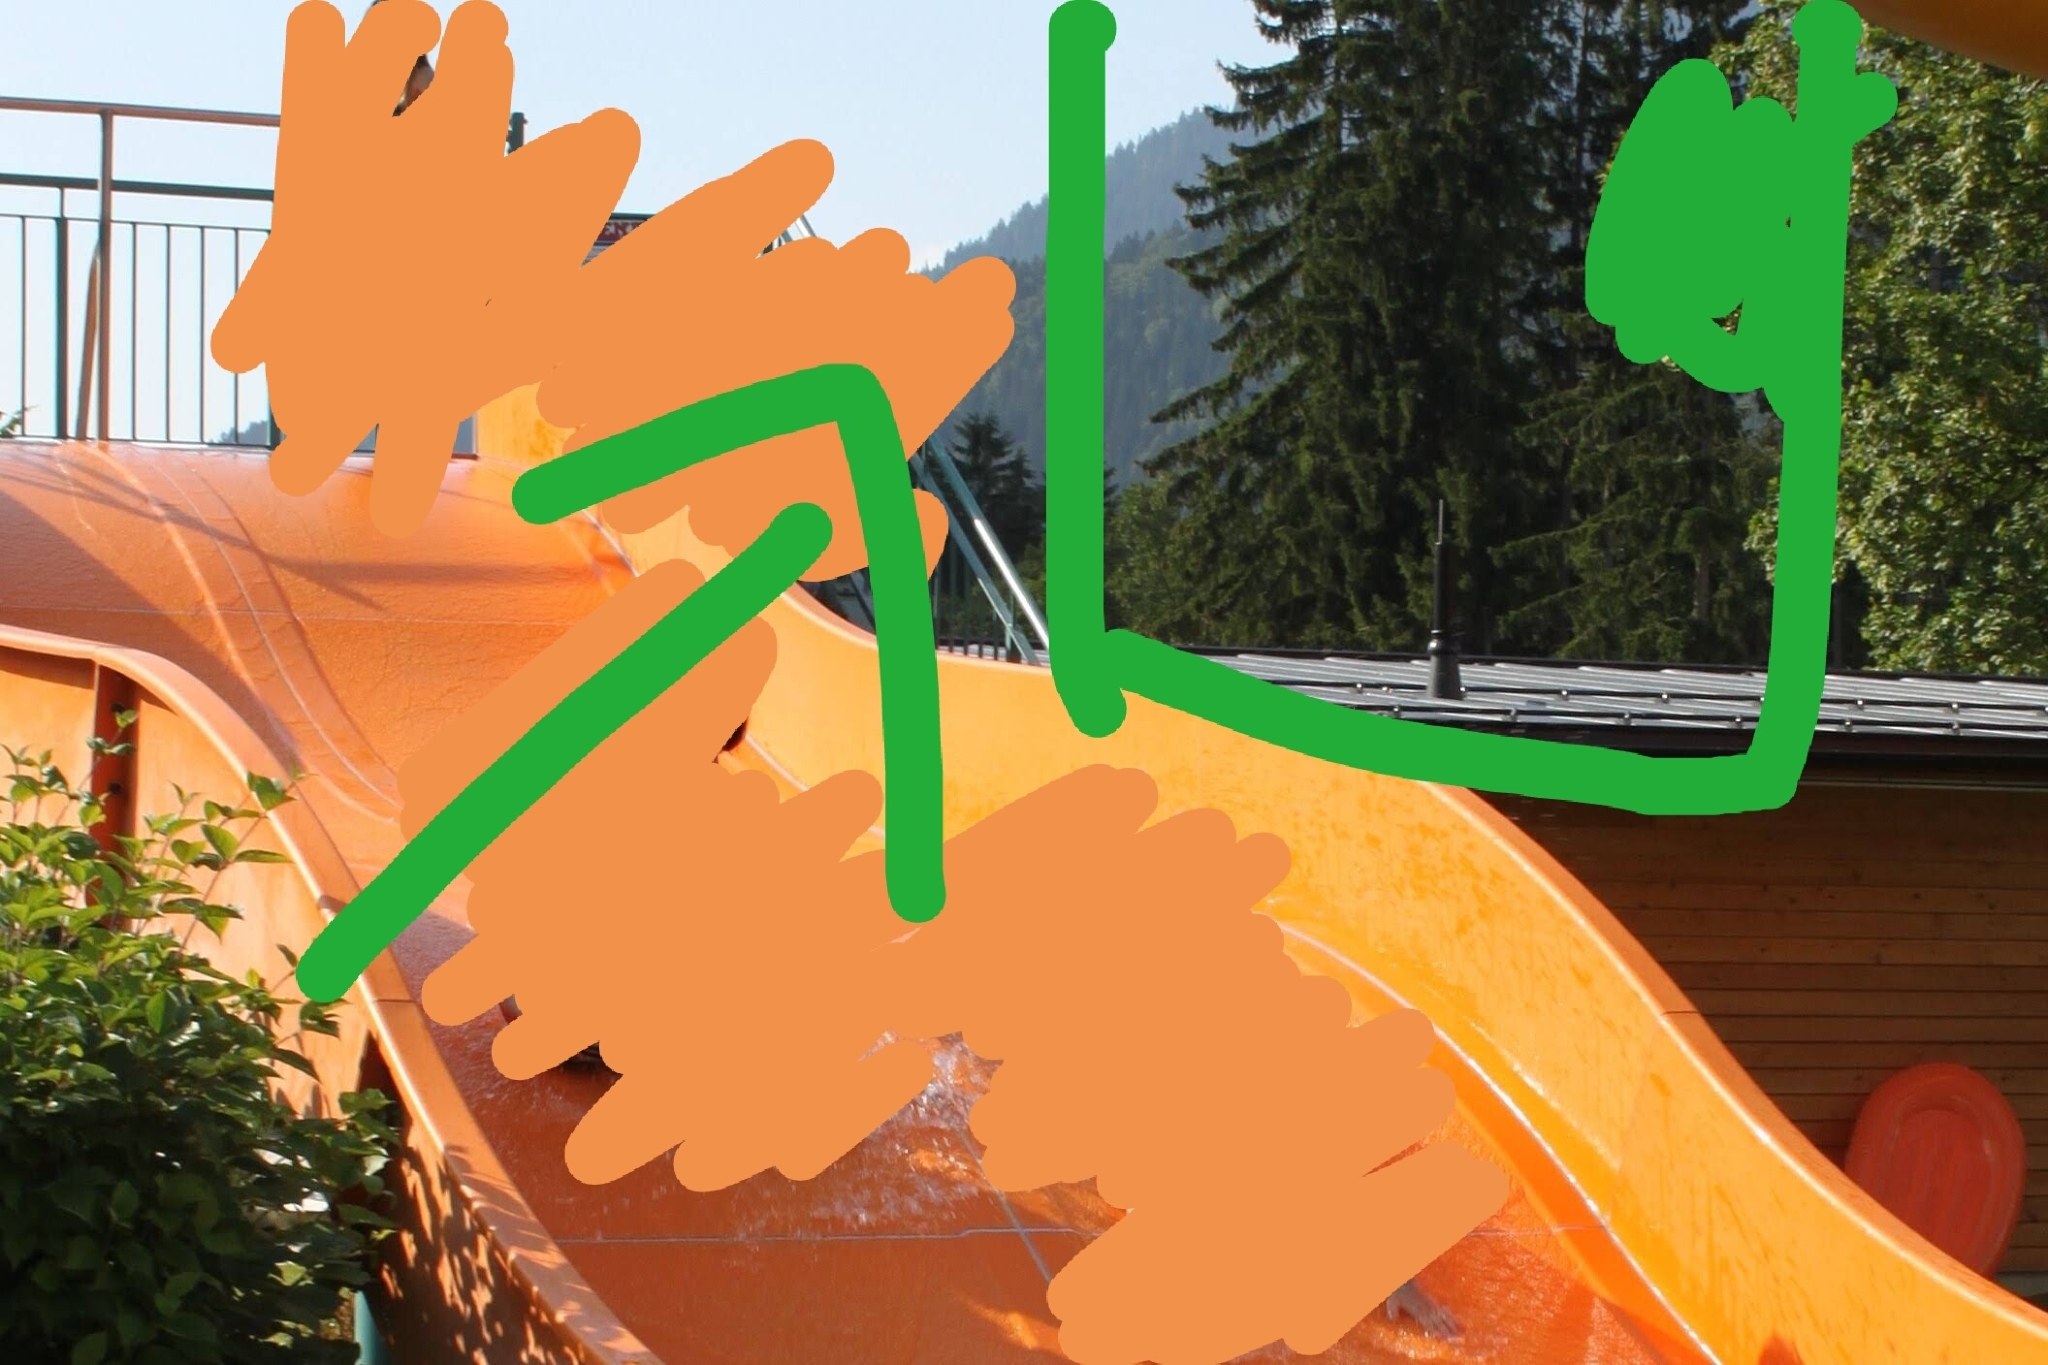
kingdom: Plantae
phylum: Tracheophyta
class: Pinopsida
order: Pinales
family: Pinaceae
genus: Picea
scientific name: Picea abies
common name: Norway spruce
